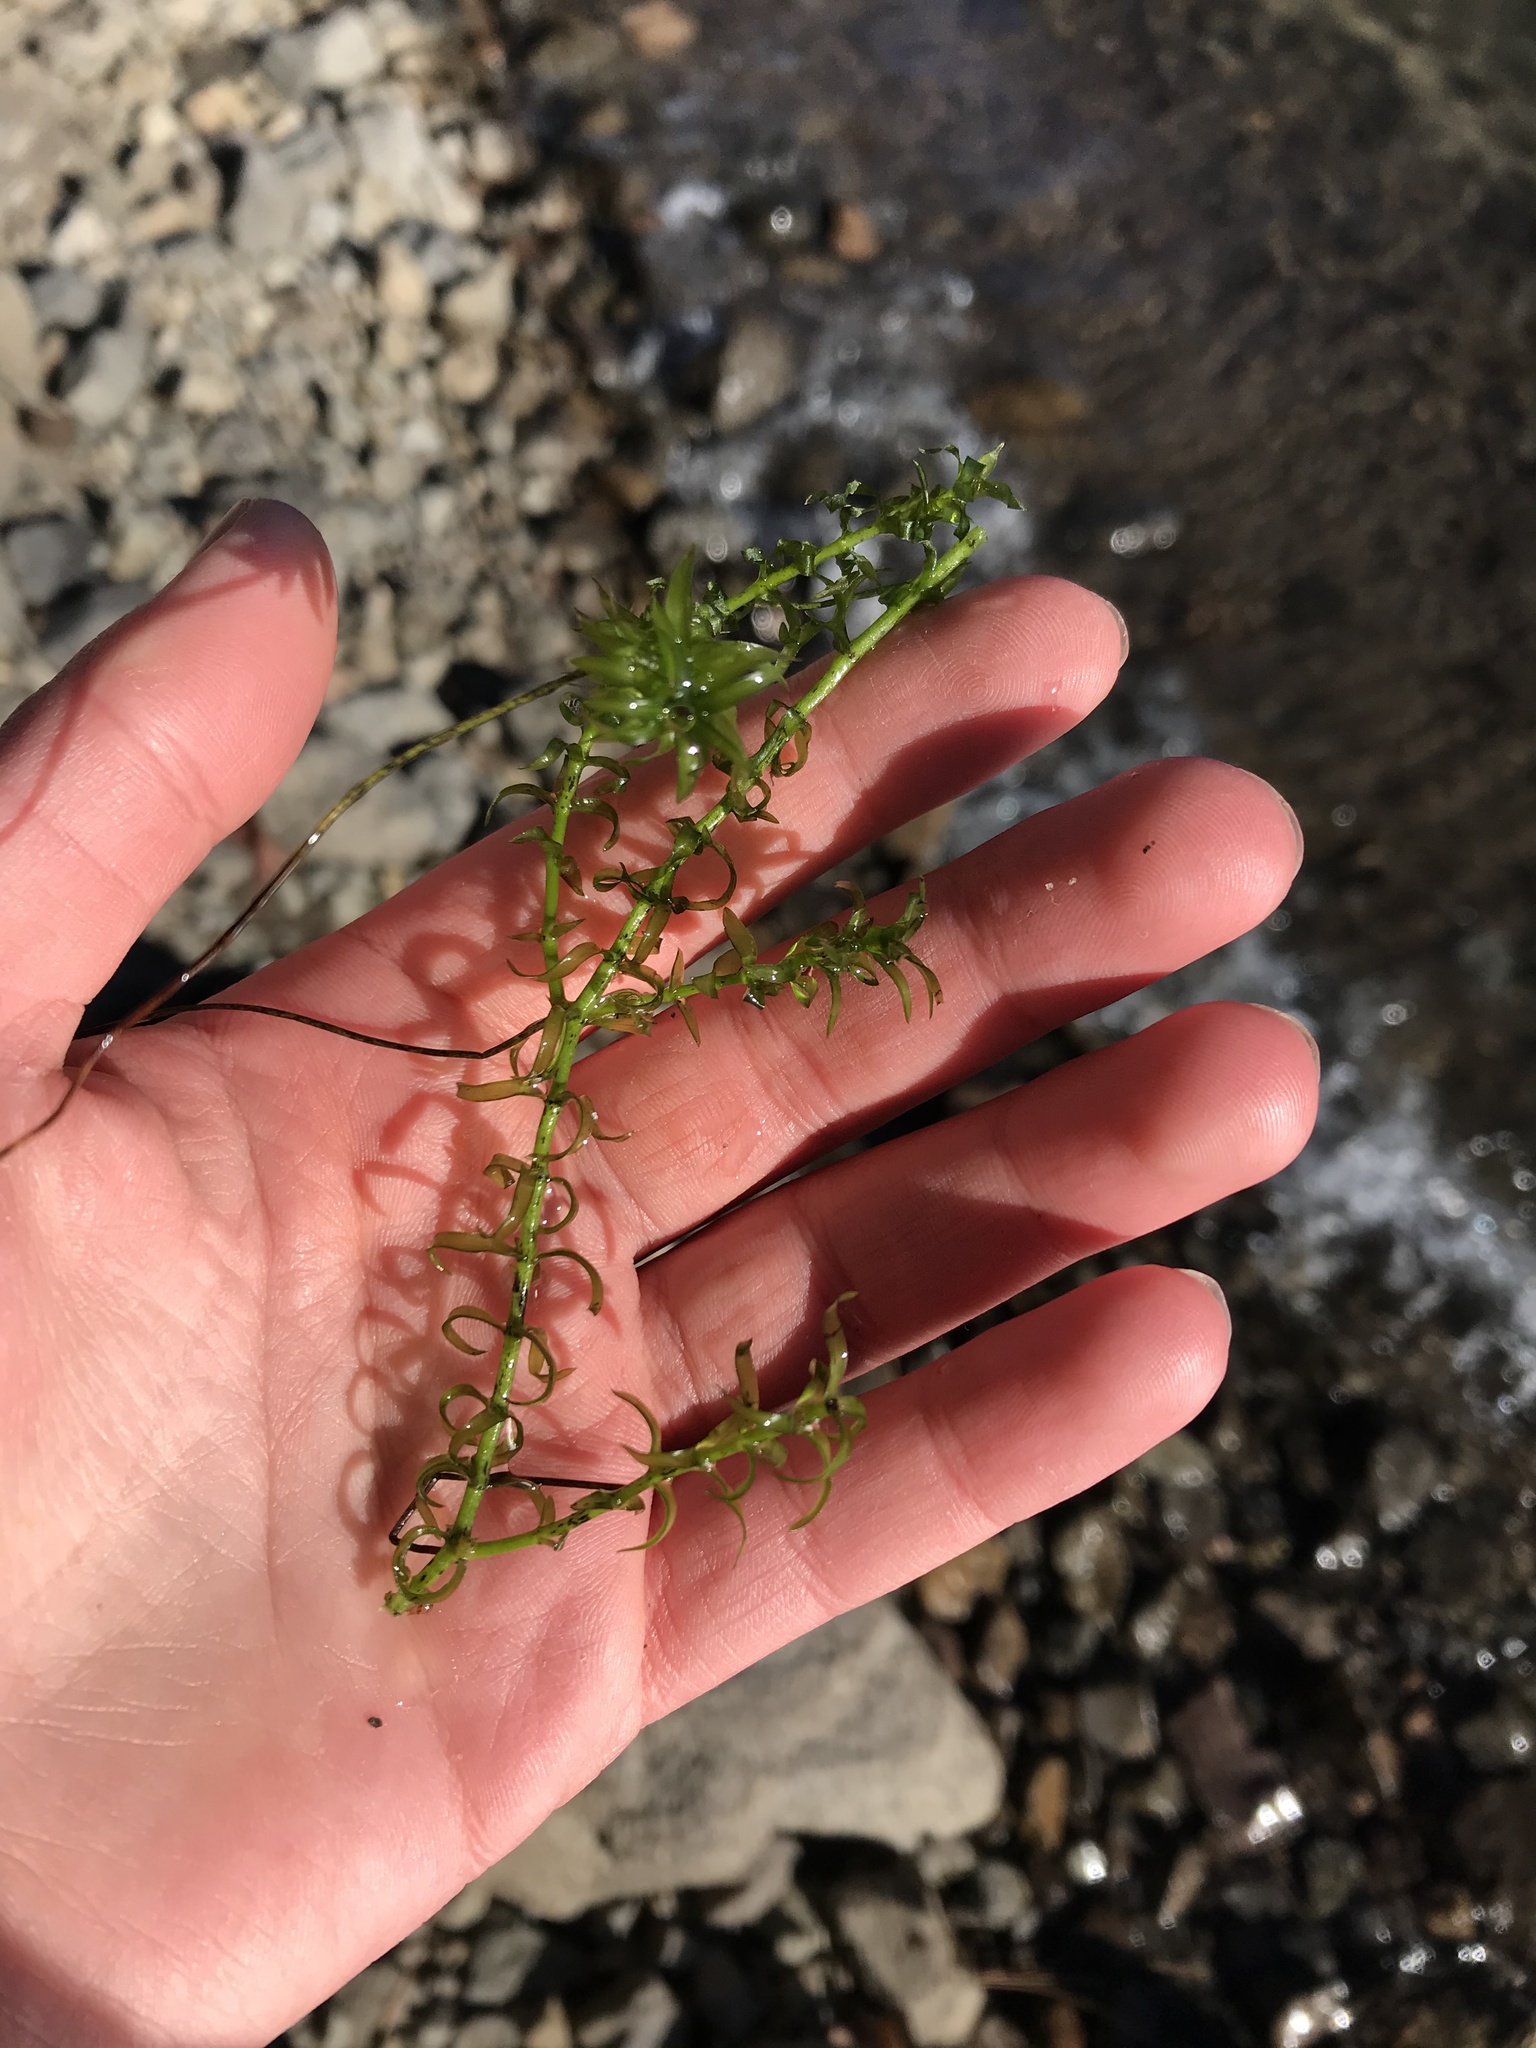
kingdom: Plantae
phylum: Tracheophyta
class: Liliopsida
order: Alismatales
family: Hydrocharitaceae
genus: Elodea
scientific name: Elodea nuttallii
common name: Nuttall's waterweed
